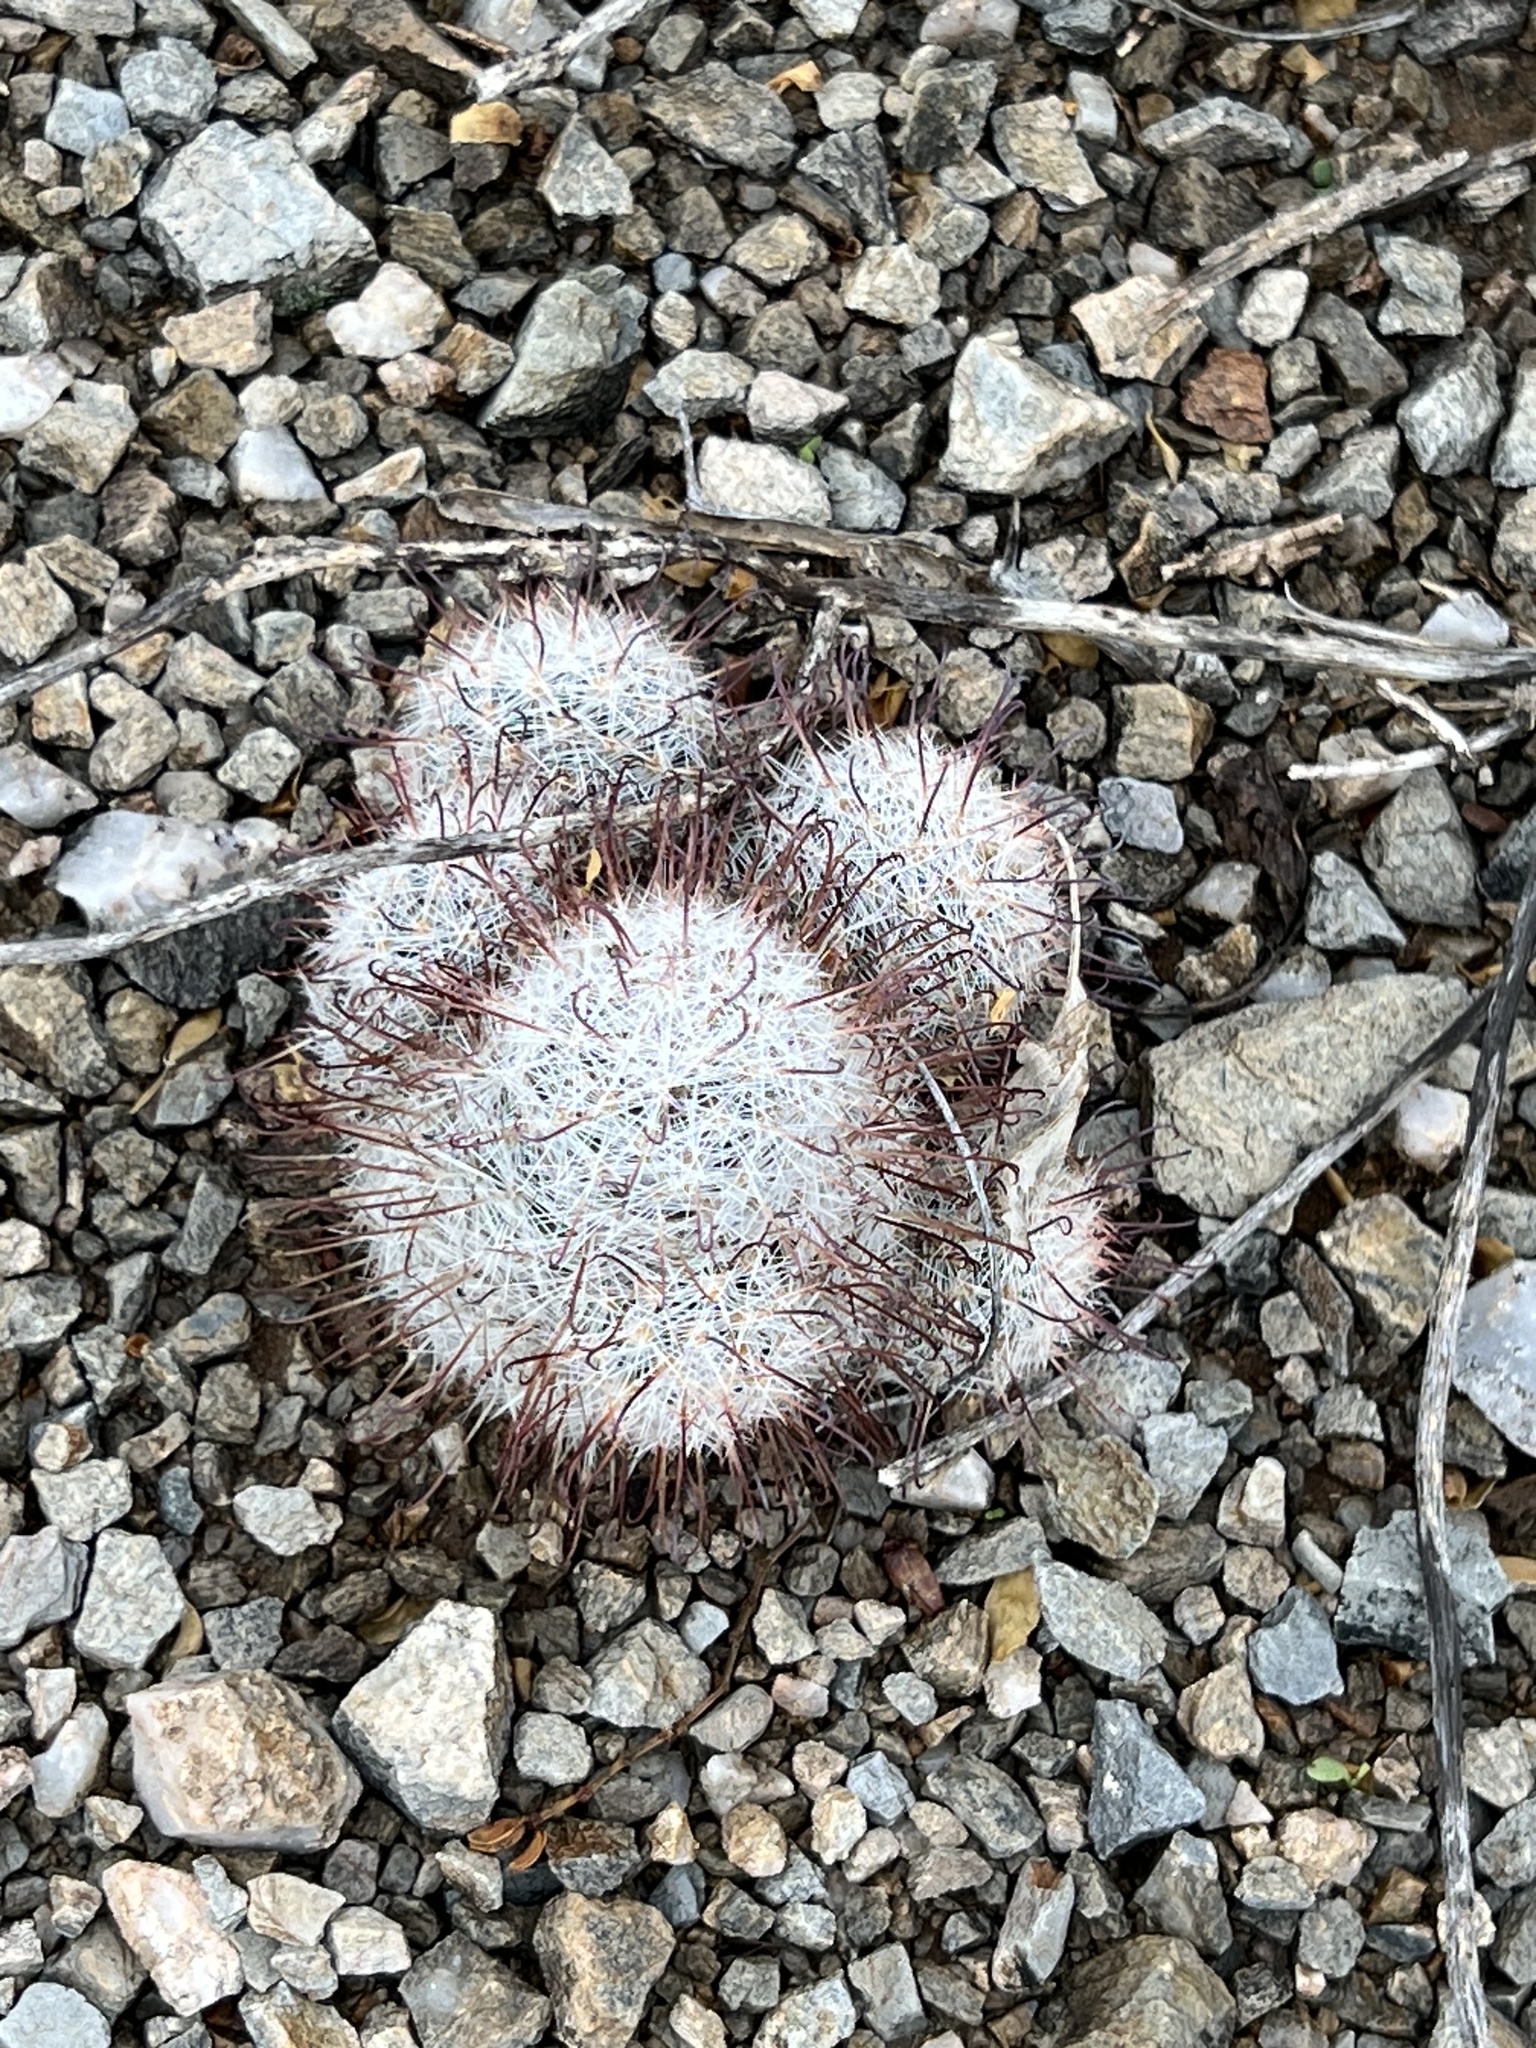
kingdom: Plantae
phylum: Tracheophyta
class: Magnoliopsida
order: Caryophyllales
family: Cactaceae
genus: Cochemiea
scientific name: Cochemiea grahamii
